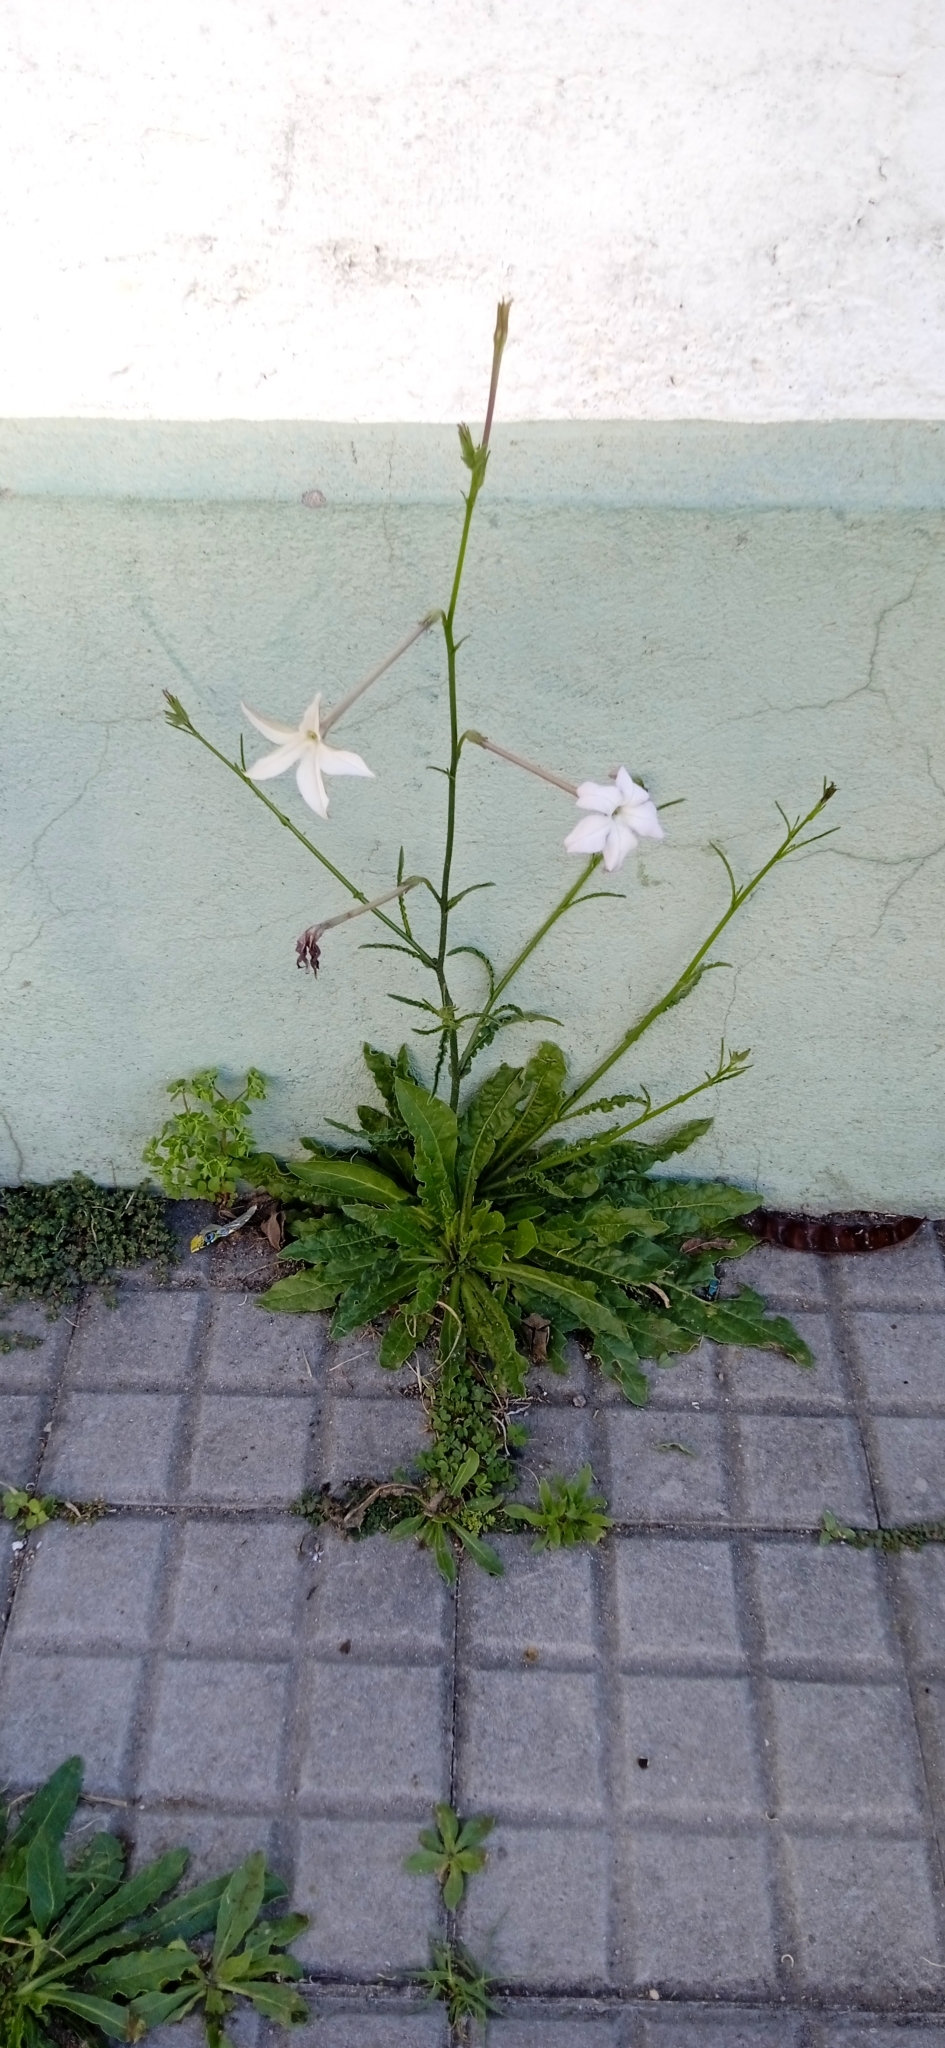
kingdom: Plantae
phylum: Tracheophyta
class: Magnoliopsida
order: Solanales
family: Solanaceae
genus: Nicotiana
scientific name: Nicotiana longiflora
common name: Long-flowered tobacco
